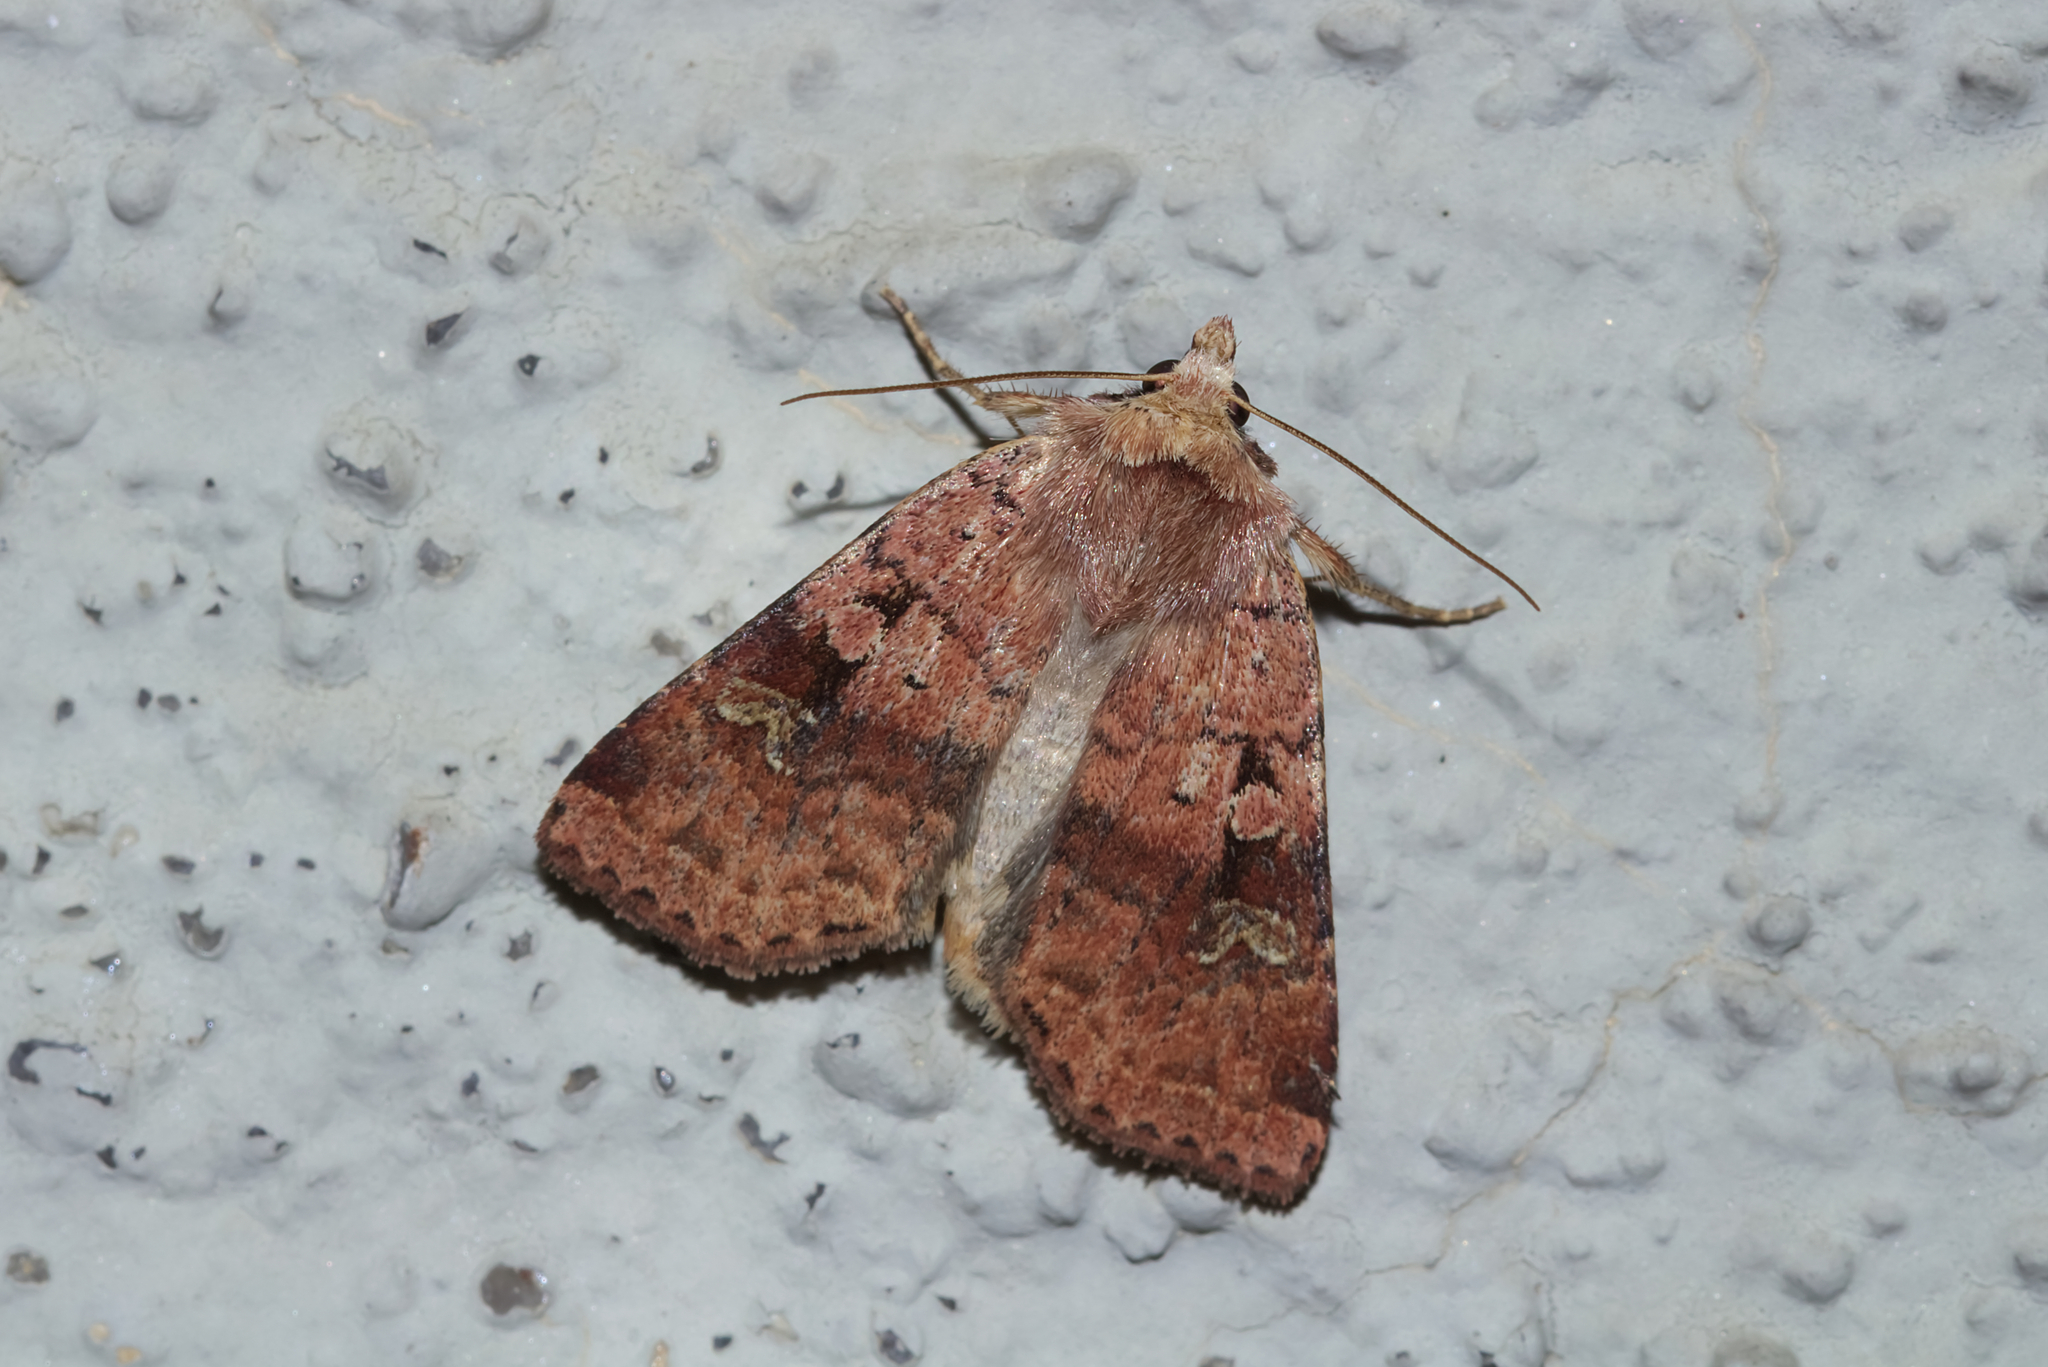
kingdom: Animalia
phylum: Arthropoda
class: Insecta
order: Lepidoptera
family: Noctuidae
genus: Diarsia
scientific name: Diarsia mendica
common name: Ingrailed clay
